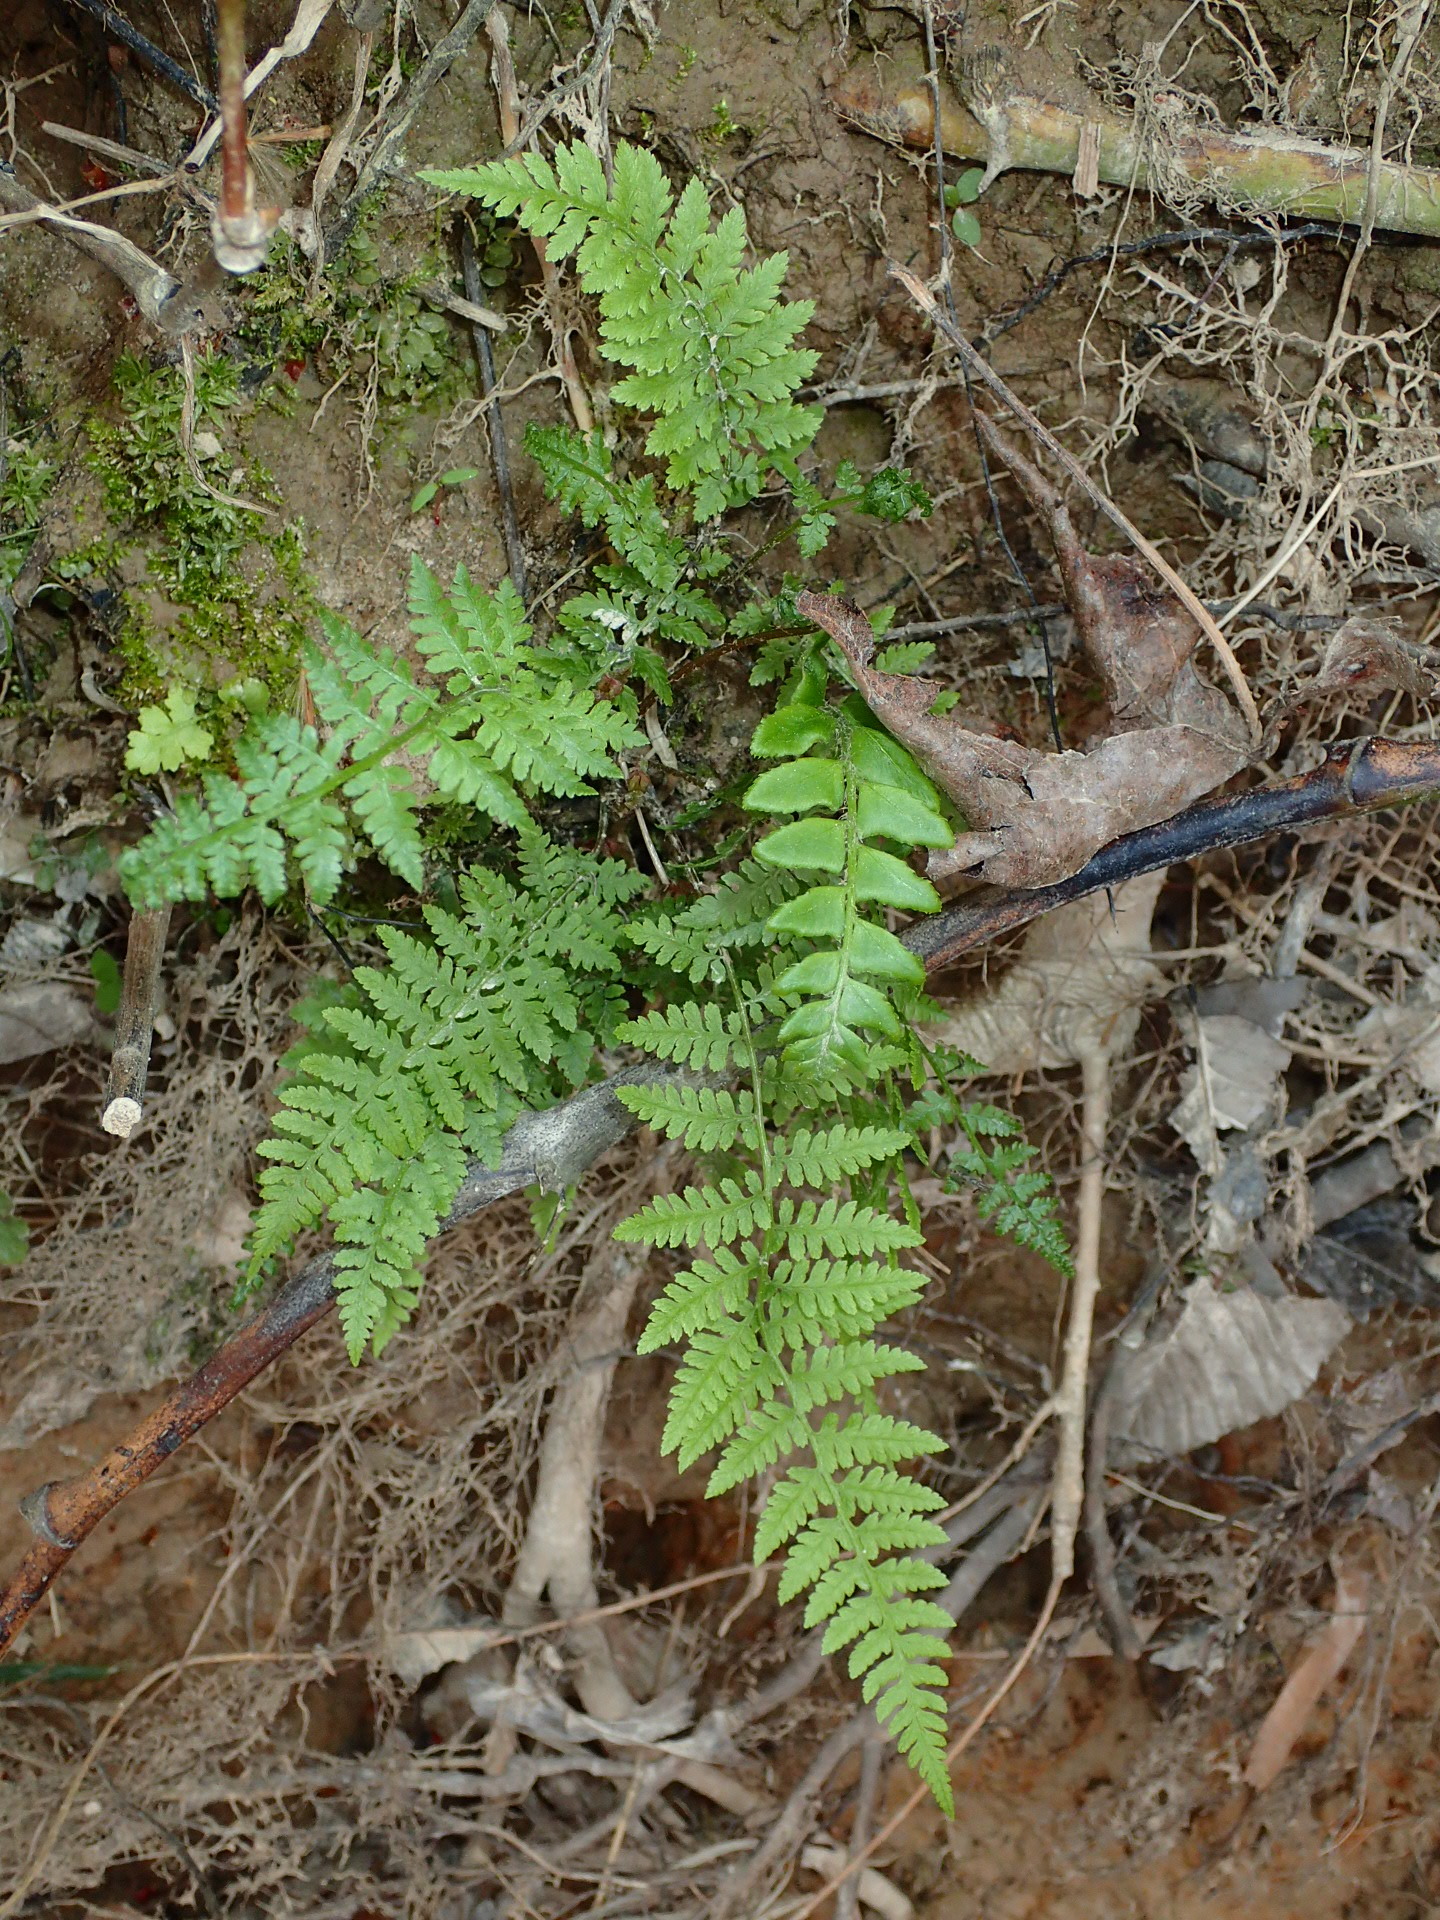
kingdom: Plantae
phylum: Tracheophyta
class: Polypodiopsida
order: Polypodiales
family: Dryopteridaceae
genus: Polystichum
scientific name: Polystichum acrostichoides
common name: Christmas fern
